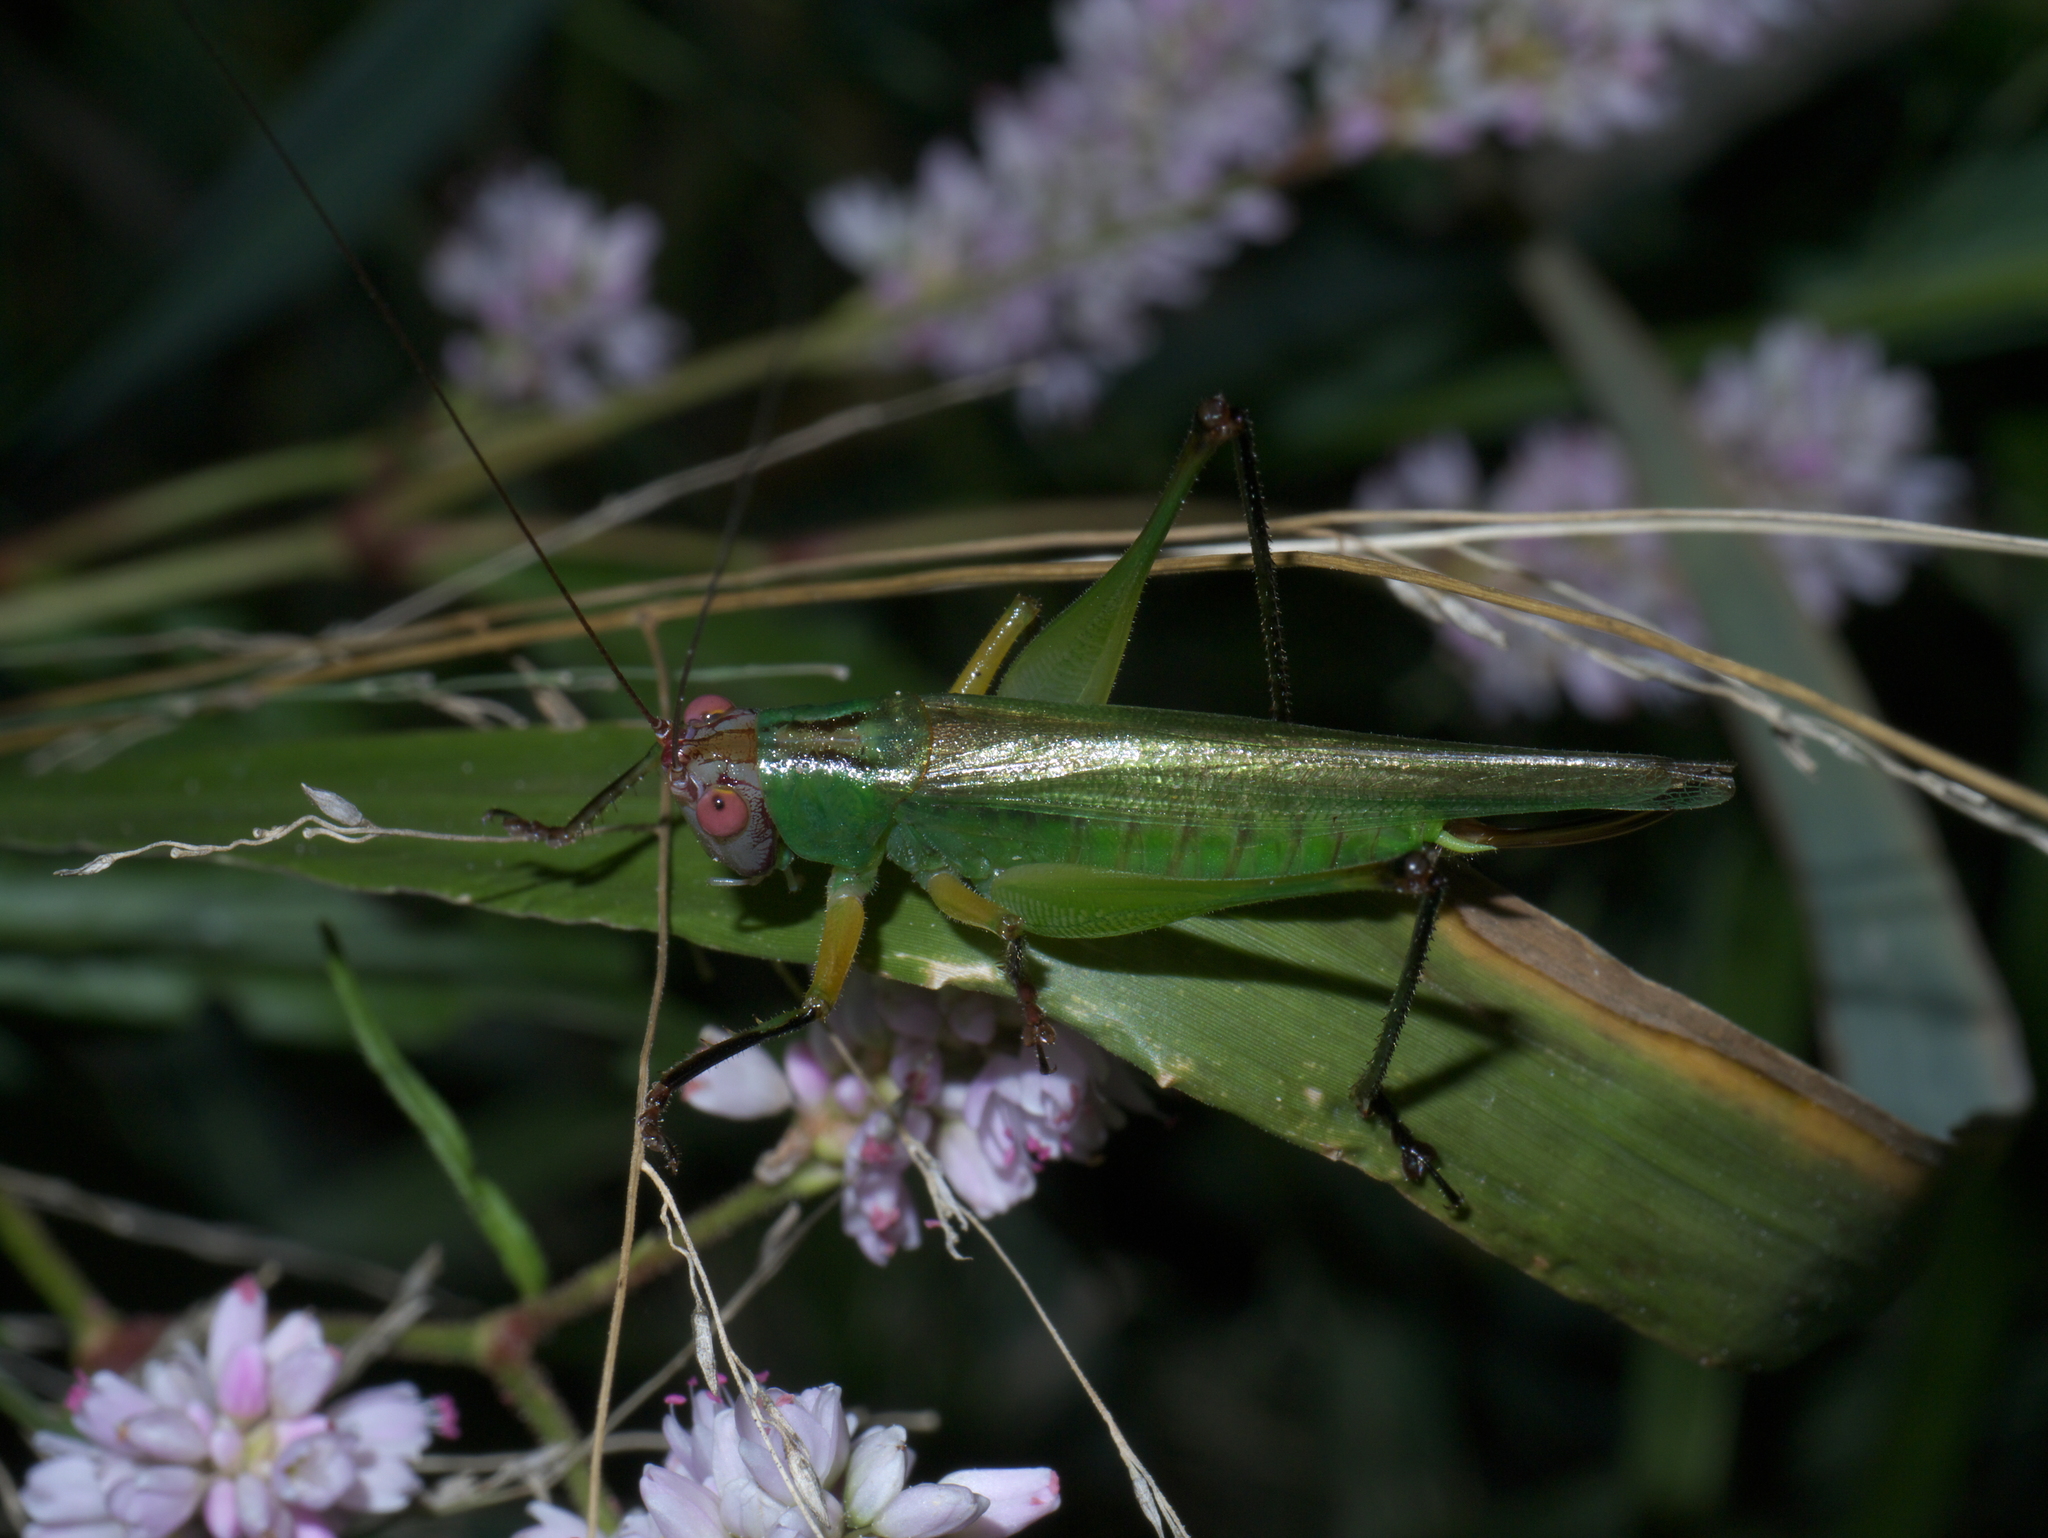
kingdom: Animalia
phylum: Arthropoda
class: Insecta
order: Orthoptera
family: Tettigoniidae
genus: Orchelimum
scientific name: Orchelimum nigripes
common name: Black-legged meadow katydid
